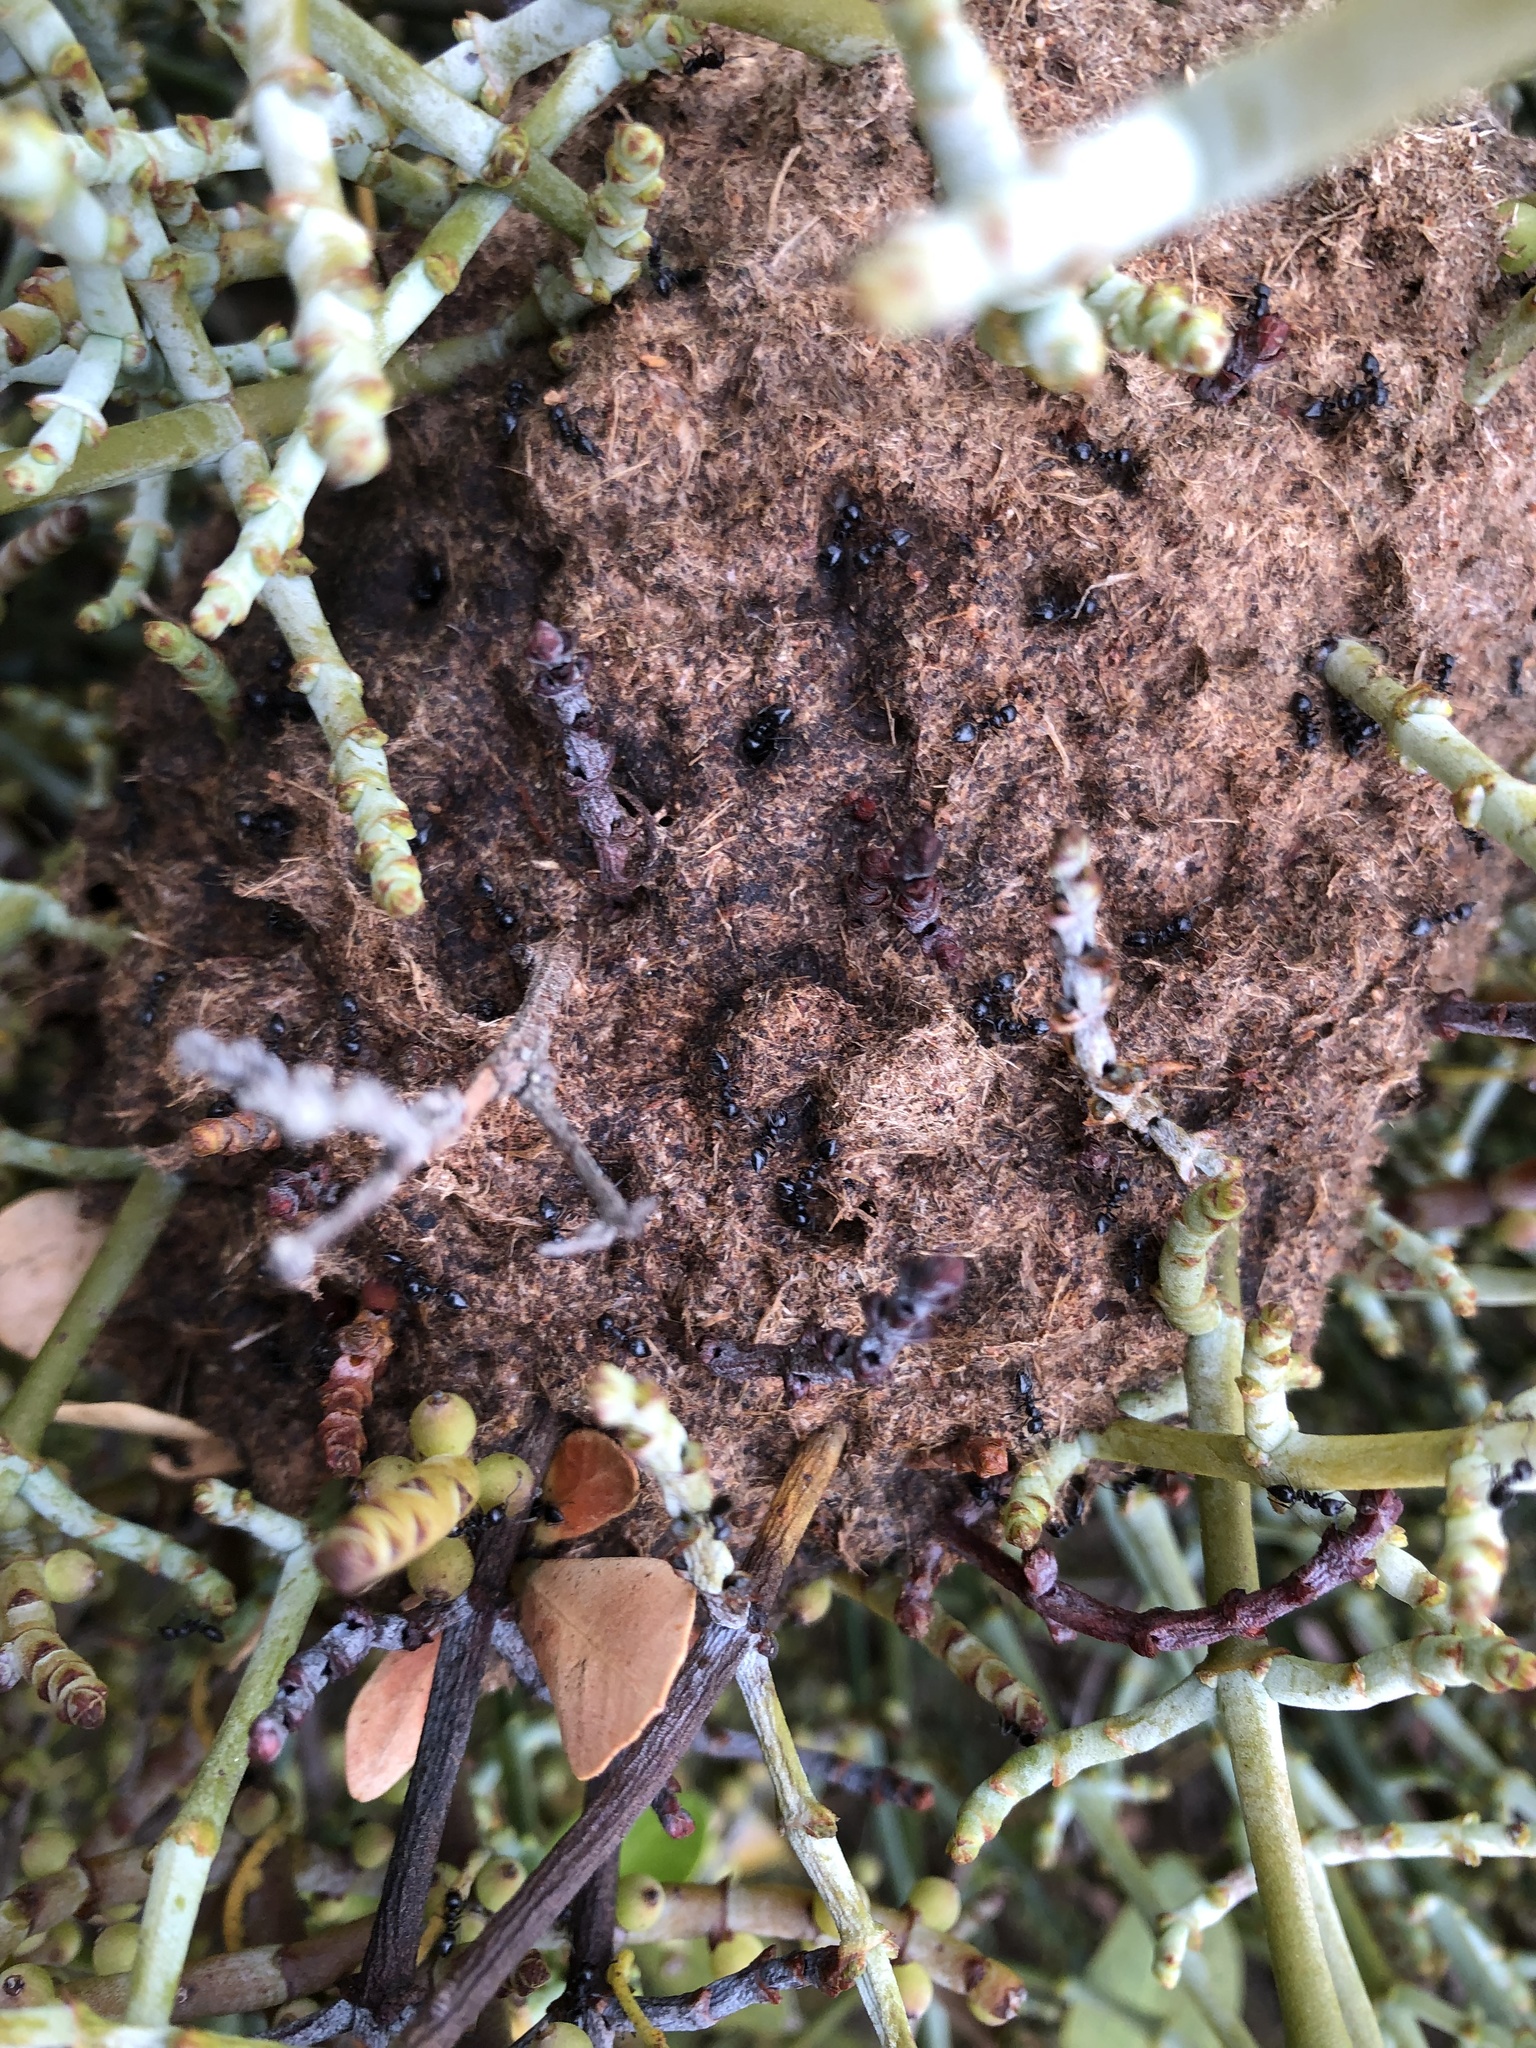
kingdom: Animalia
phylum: Arthropoda
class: Insecta
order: Hymenoptera
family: Formicidae
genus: Crematogaster
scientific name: Crematogaster peringueyi
